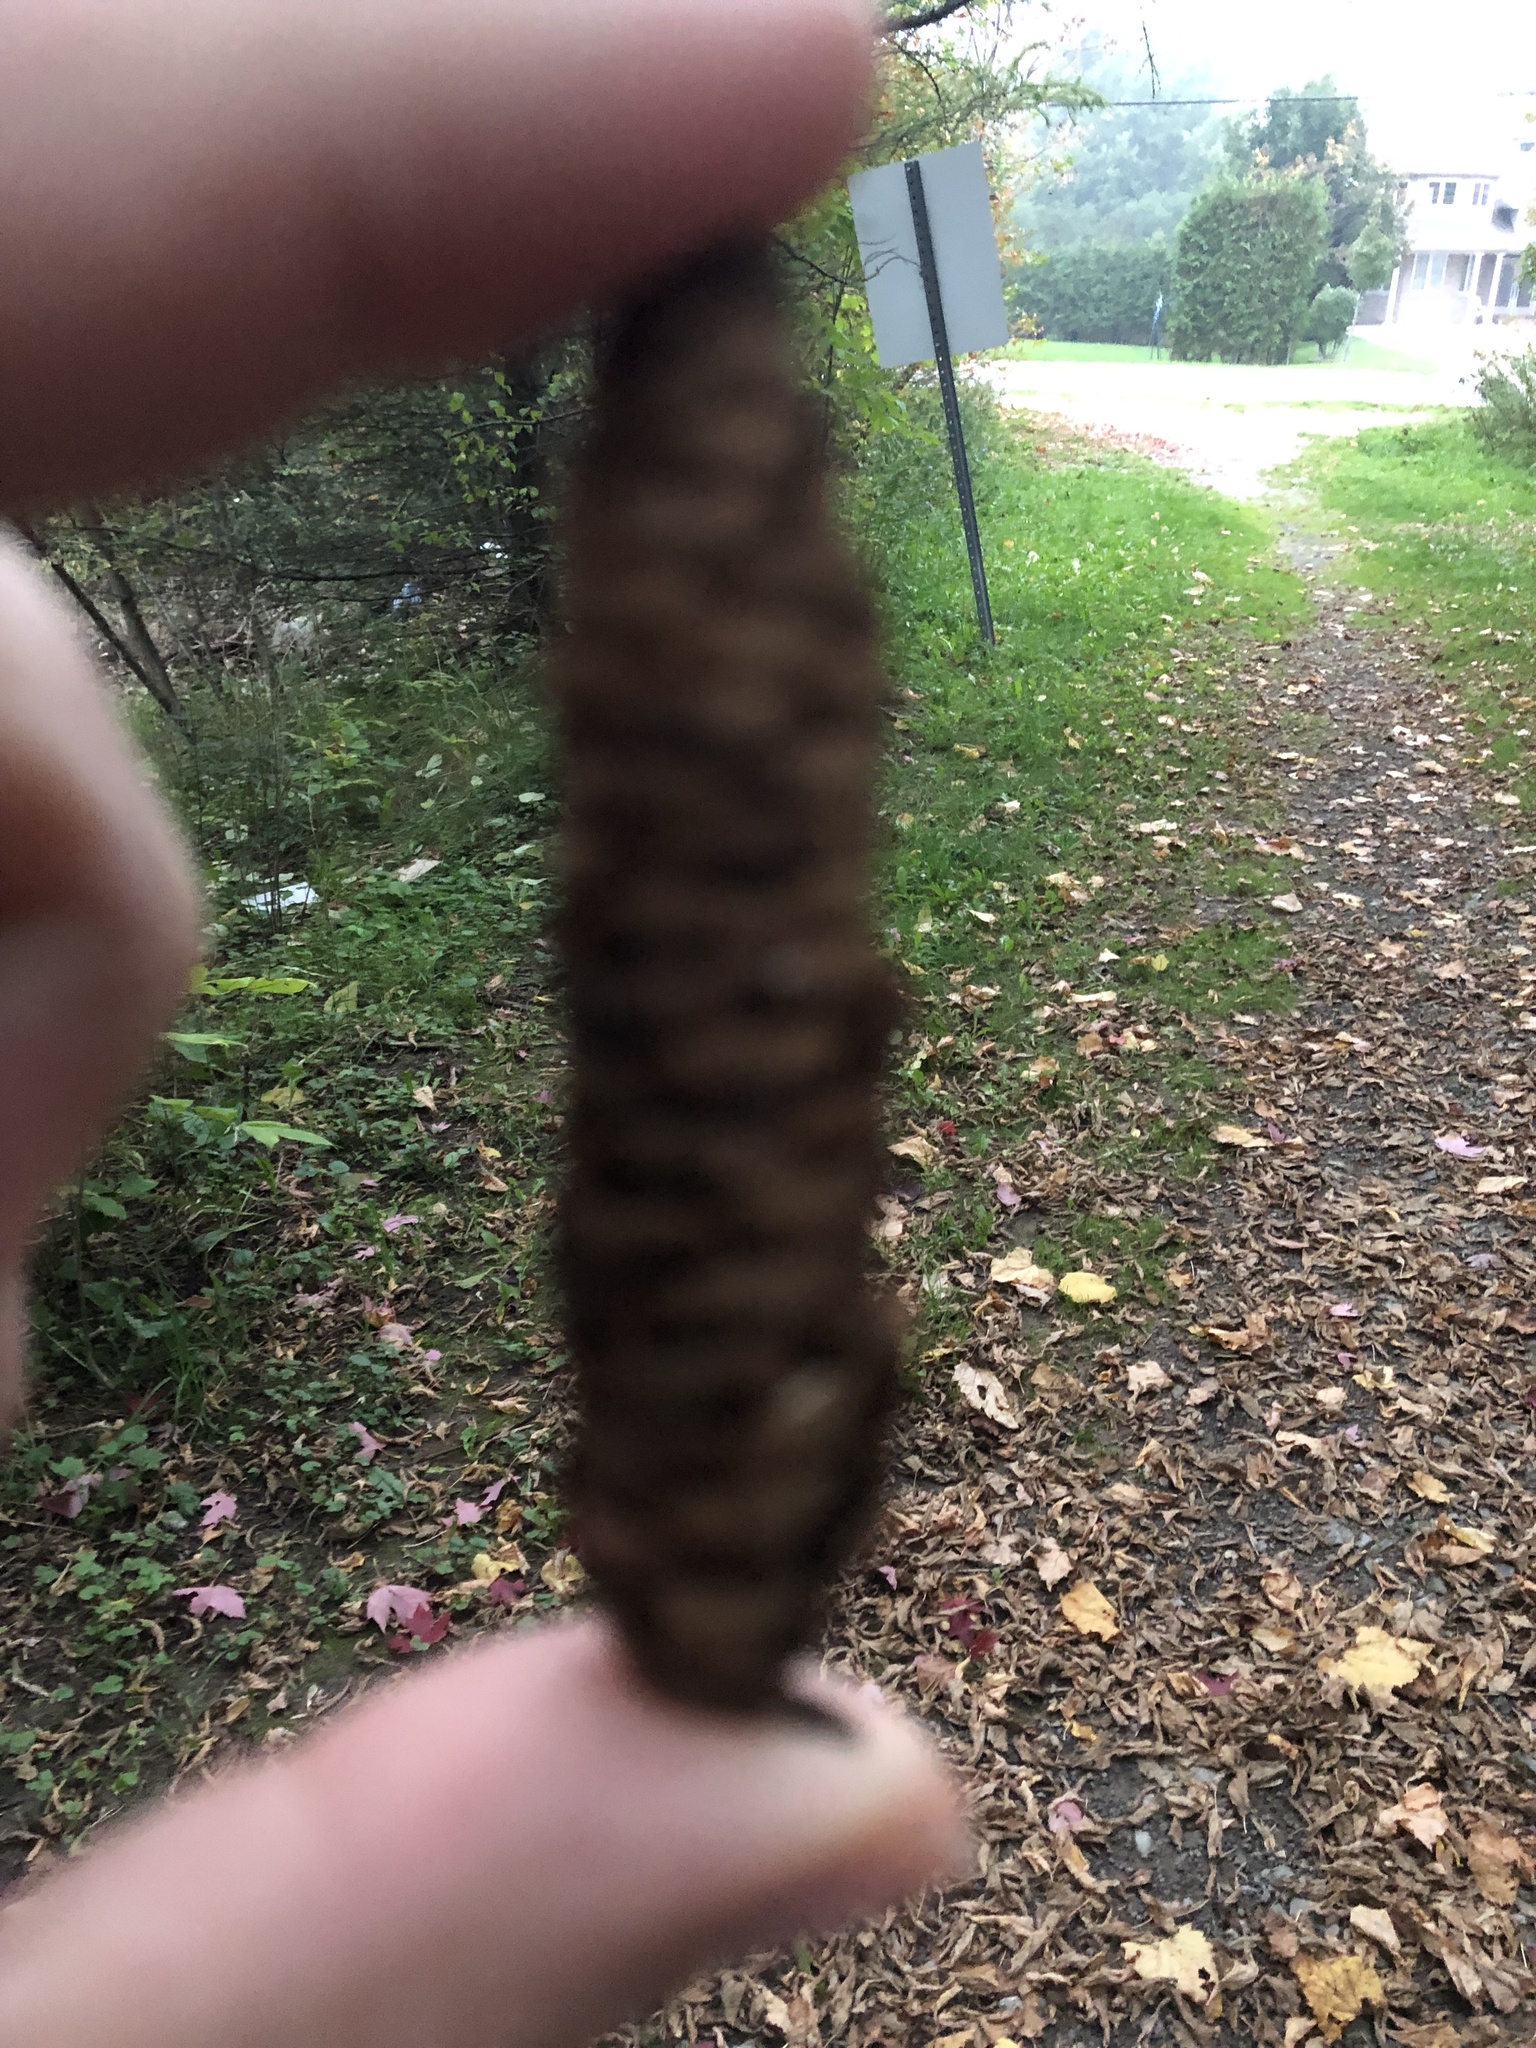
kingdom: Plantae
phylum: Tracheophyta
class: Pinopsida
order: Pinales
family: Pinaceae
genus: Picea
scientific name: Picea glauca
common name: White spruce
